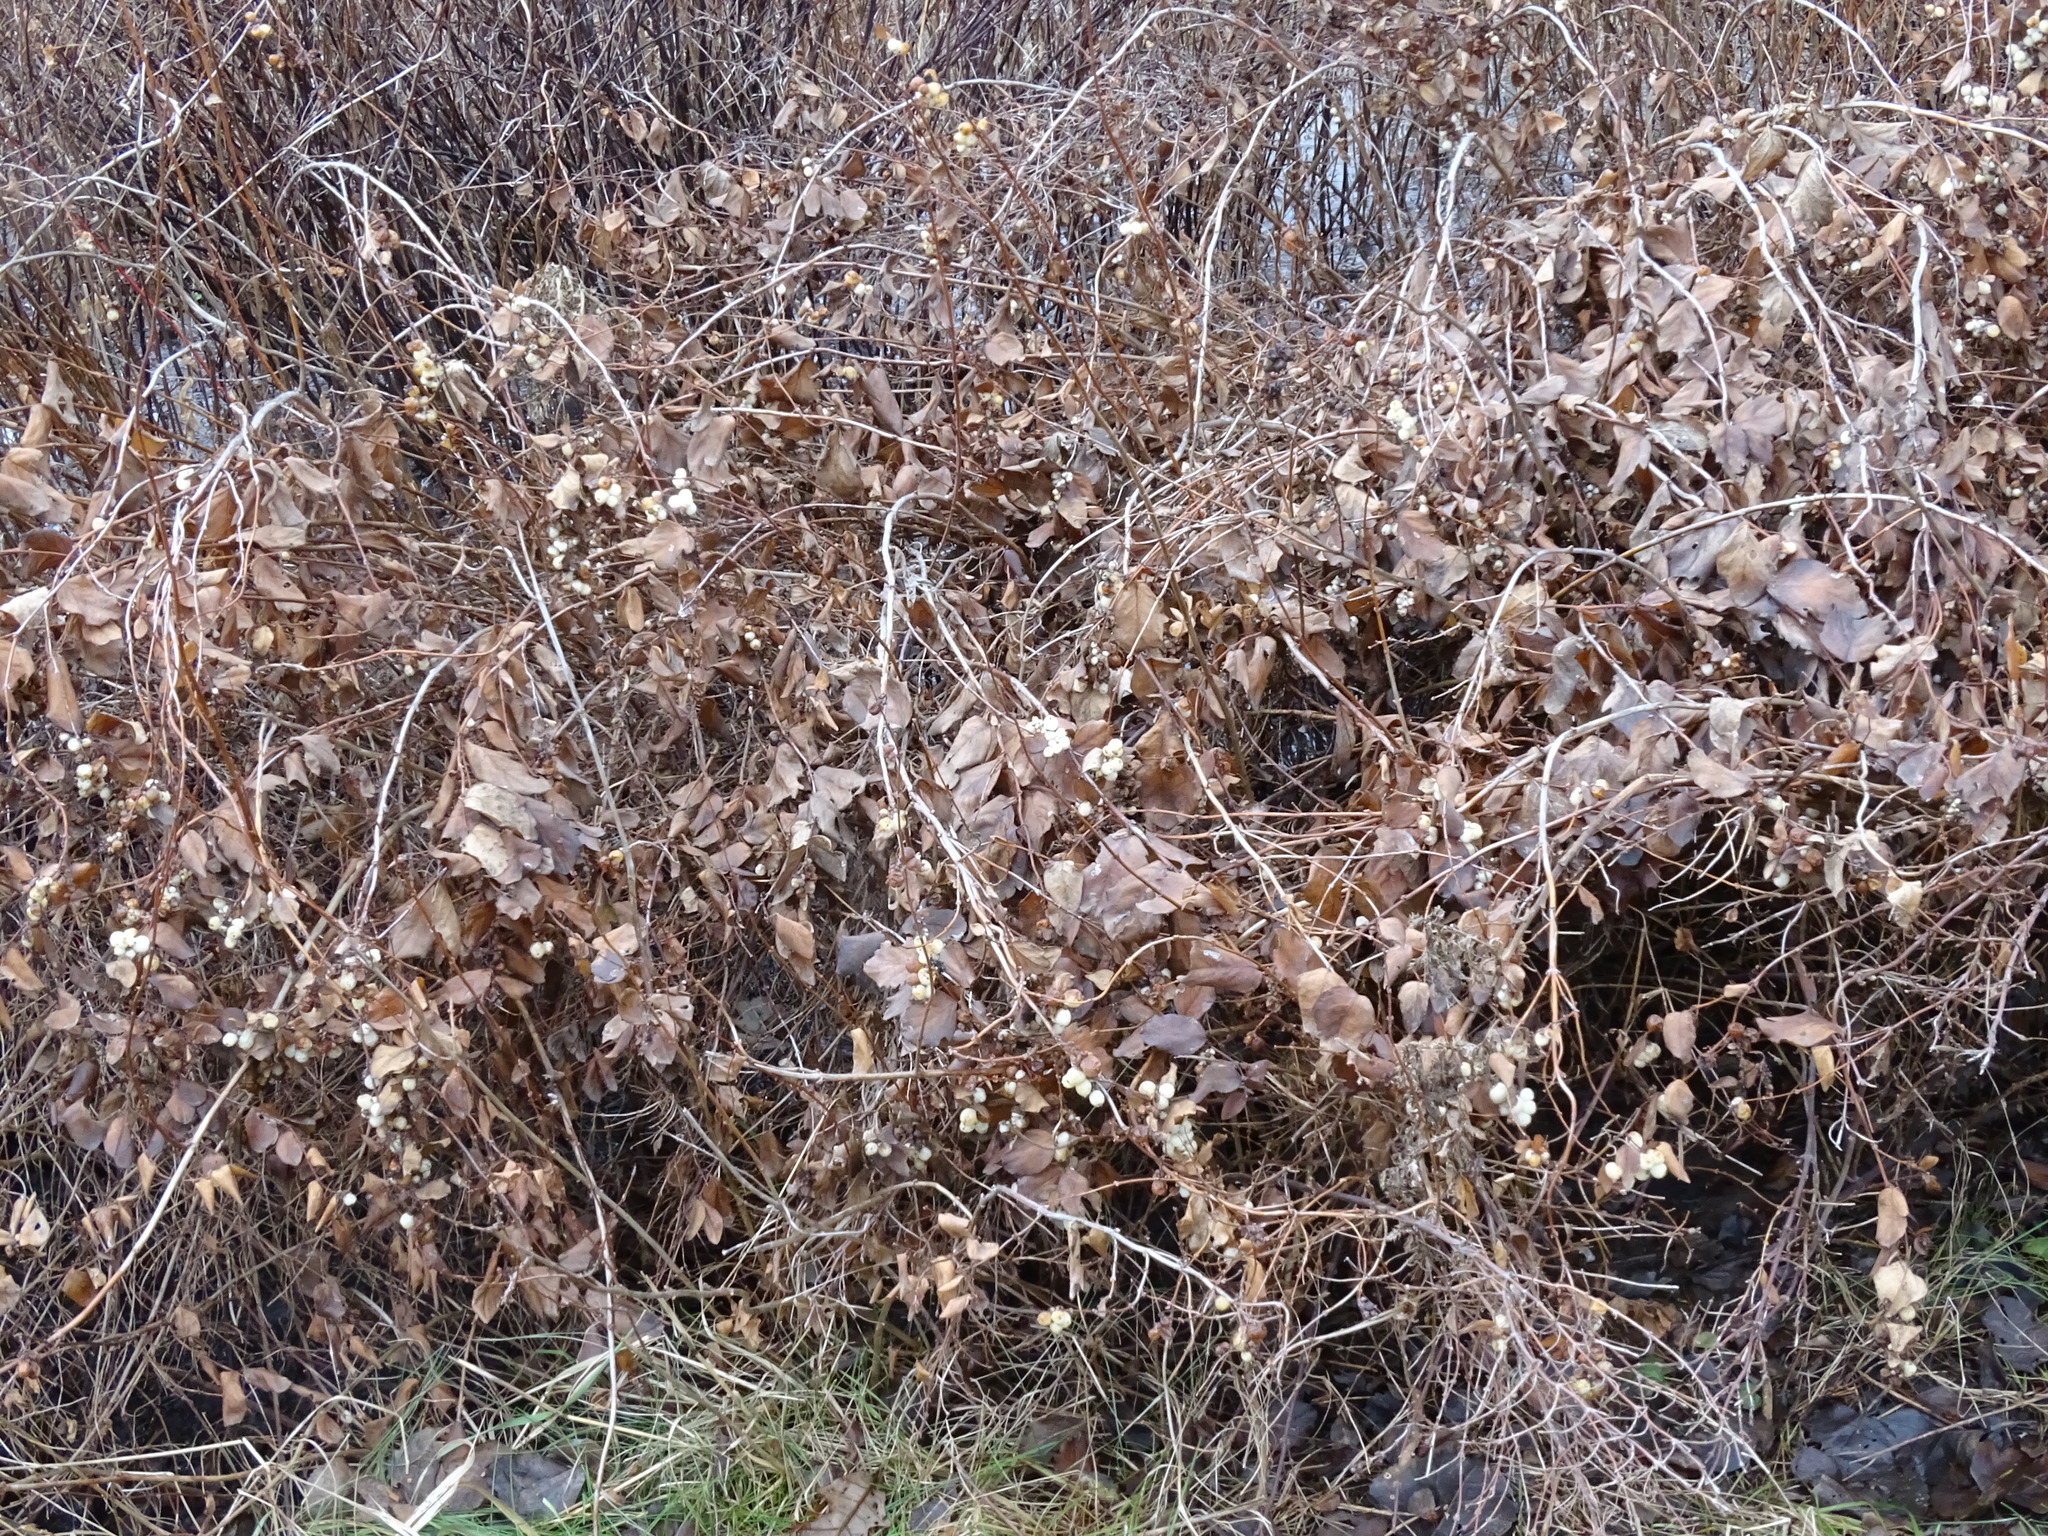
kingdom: Plantae
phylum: Tracheophyta
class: Magnoliopsida
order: Dipsacales
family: Caprifoliaceae
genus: Symphoricarpos
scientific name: Symphoricarpos albus
